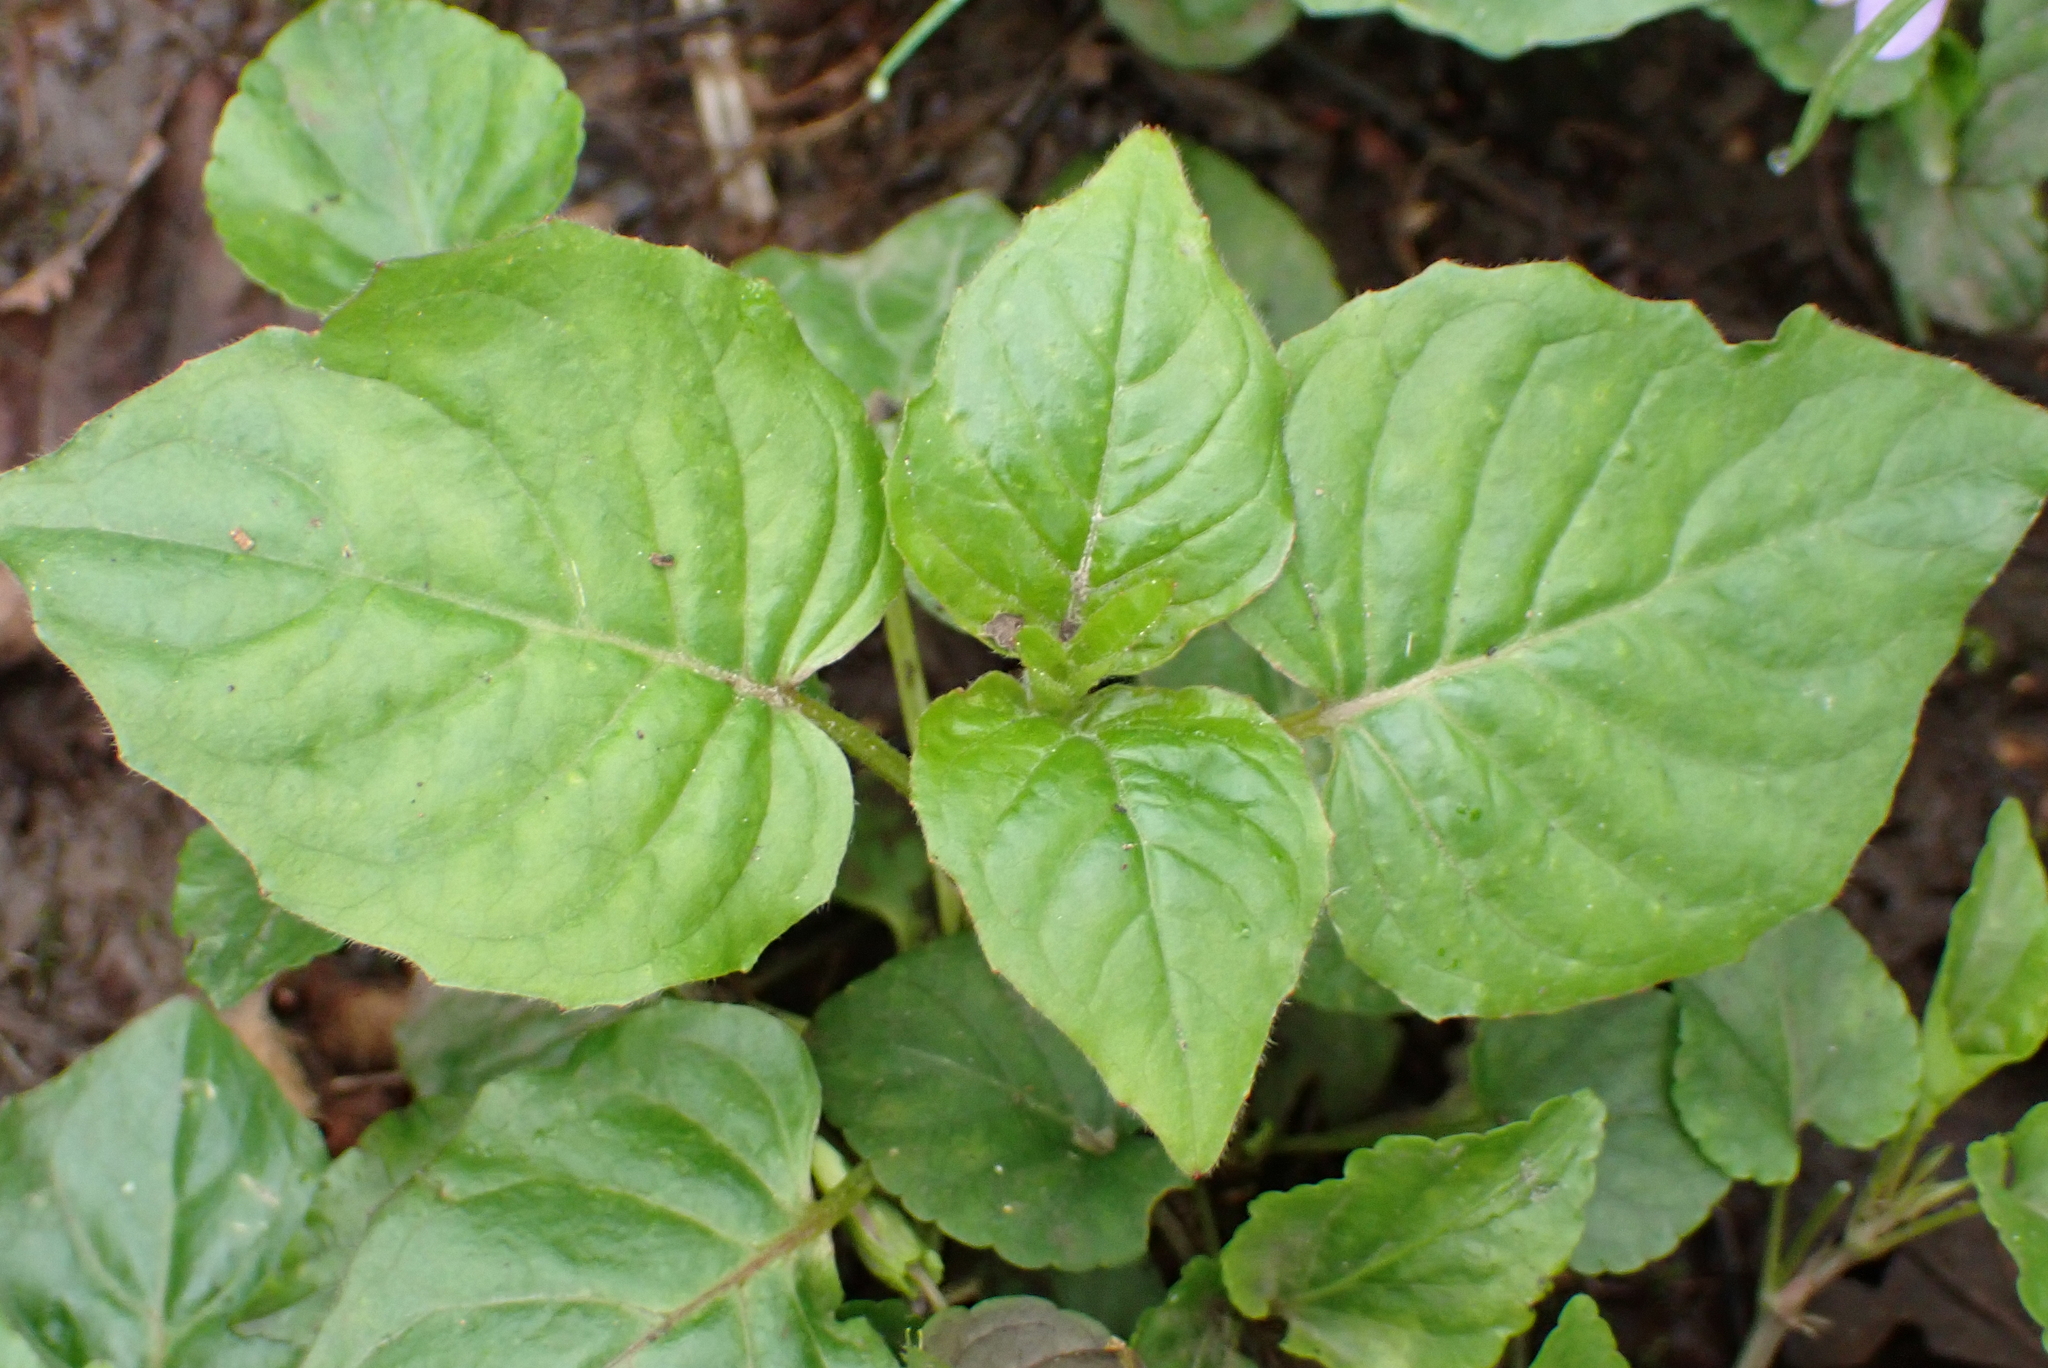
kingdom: Plantae
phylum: Tracheophyta
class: Magnoliopsida
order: Myrtales
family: Onagraceae
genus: Circaea
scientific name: Circaea lutetiana
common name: Enchanter's-nightshade
